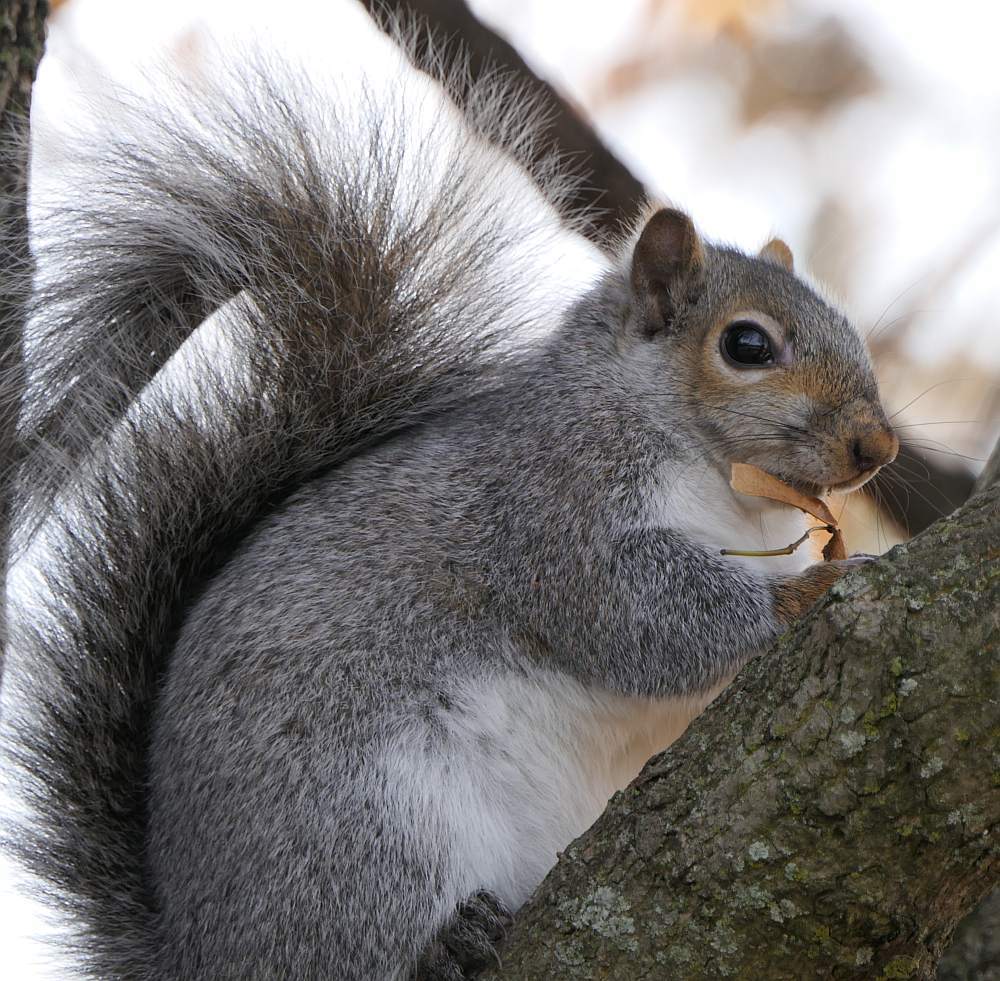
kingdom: Animalia
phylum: Chordata
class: Mammalia
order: Rodentia
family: Sciuridae
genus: Sciurus
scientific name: Sciurus carolinensis
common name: Eastern gray squirrel
